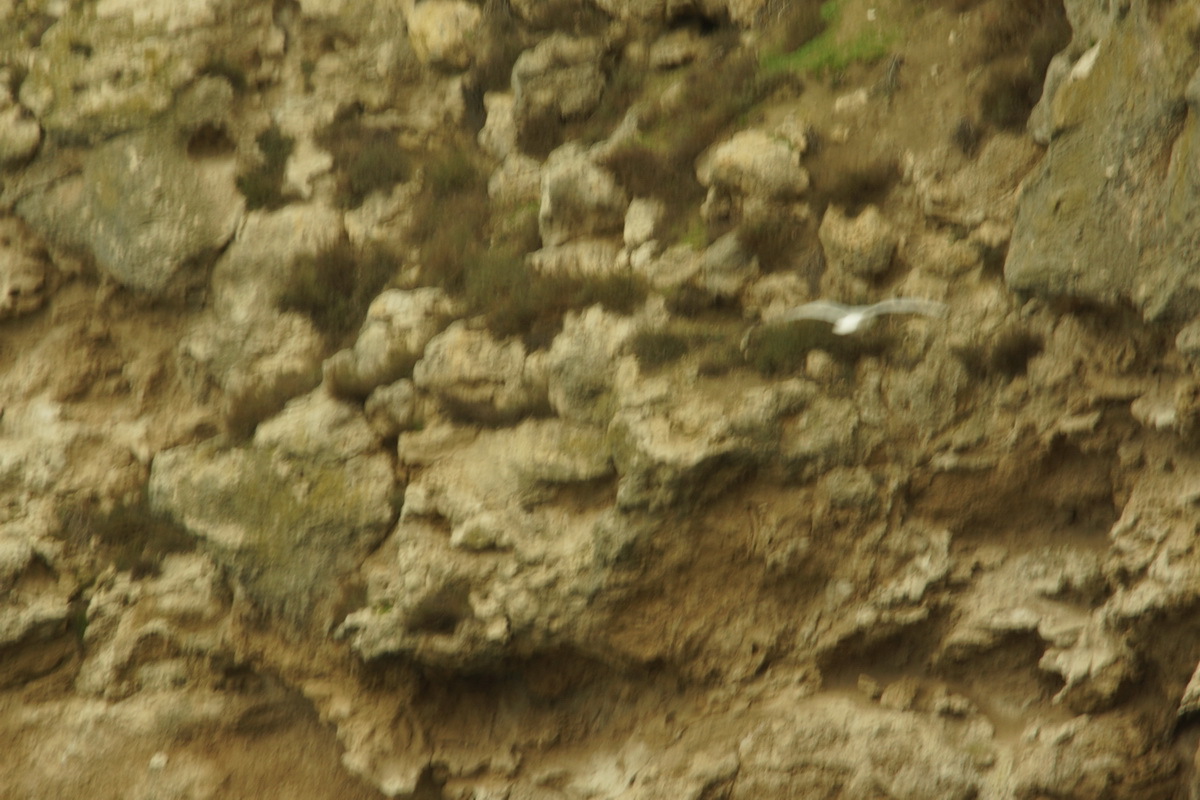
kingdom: Animalia
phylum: Chordata
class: Aves
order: Charadriiformes
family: Laridae
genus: Larus
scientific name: Larus michahellis
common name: Yellow-legged gull
